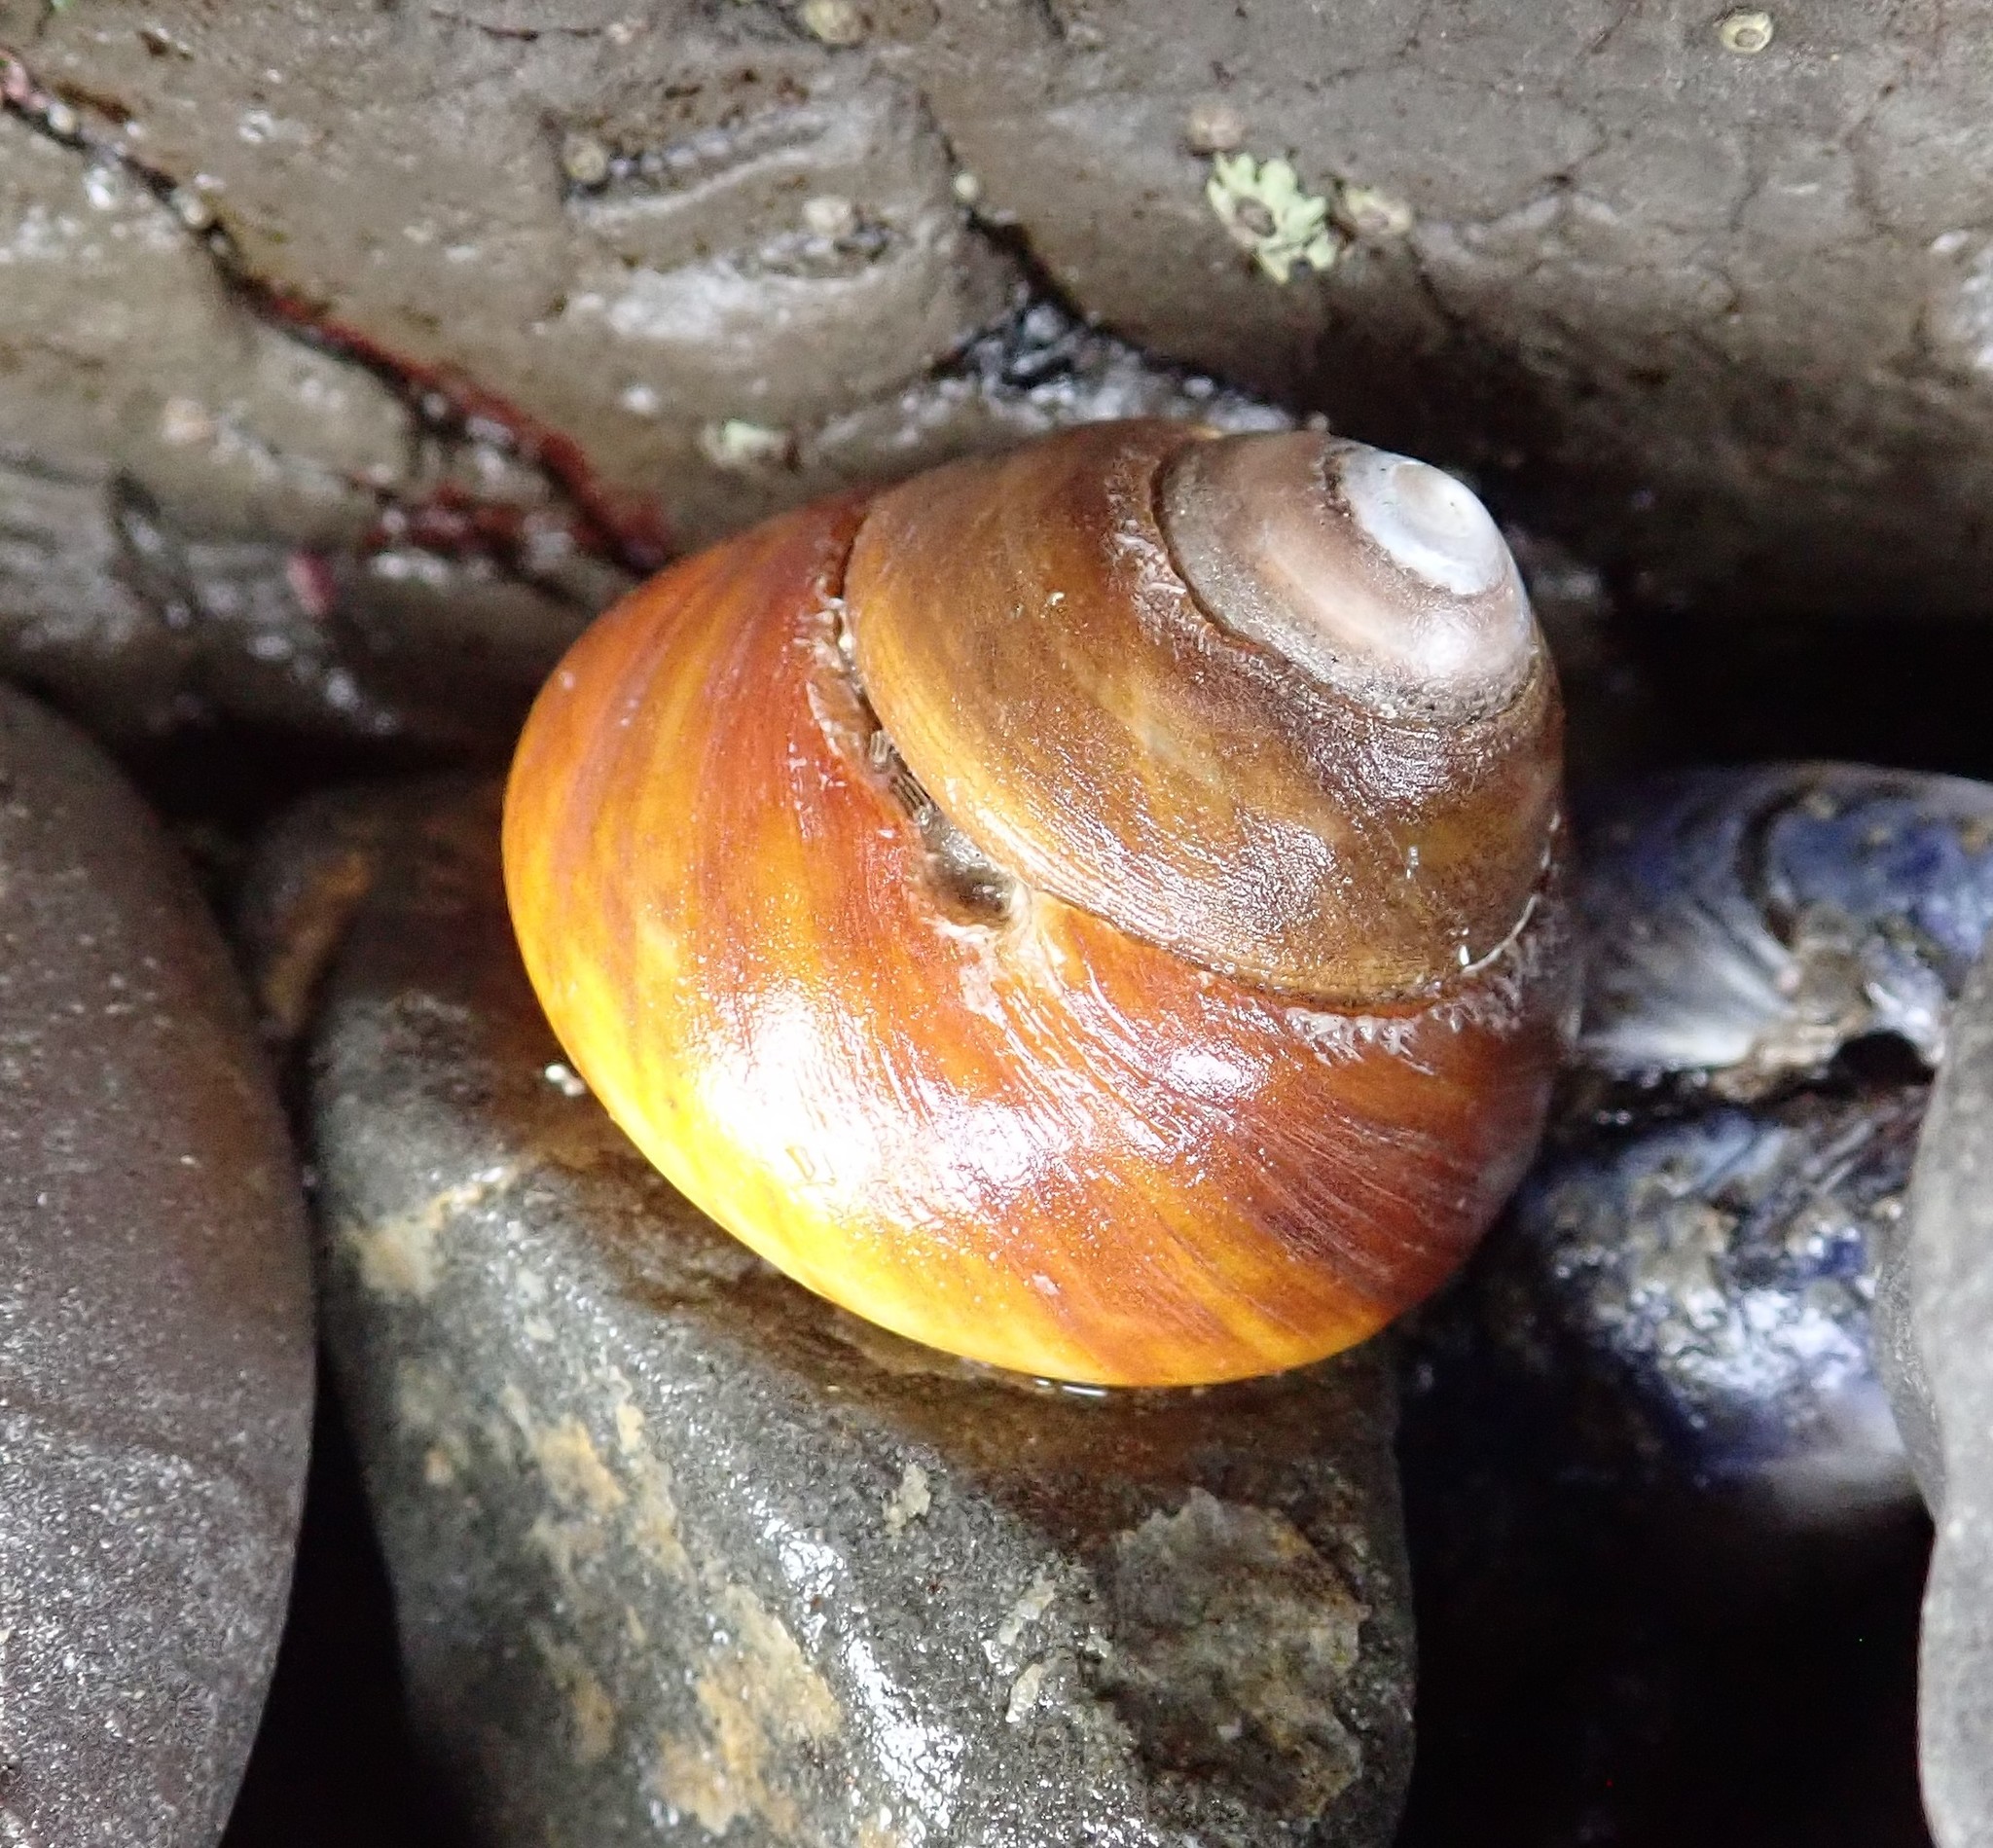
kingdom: Animalia
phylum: Mollusca
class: Gastropoda
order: Trochida
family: Tegulidae
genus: Tegula
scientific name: Tegula brunnea
